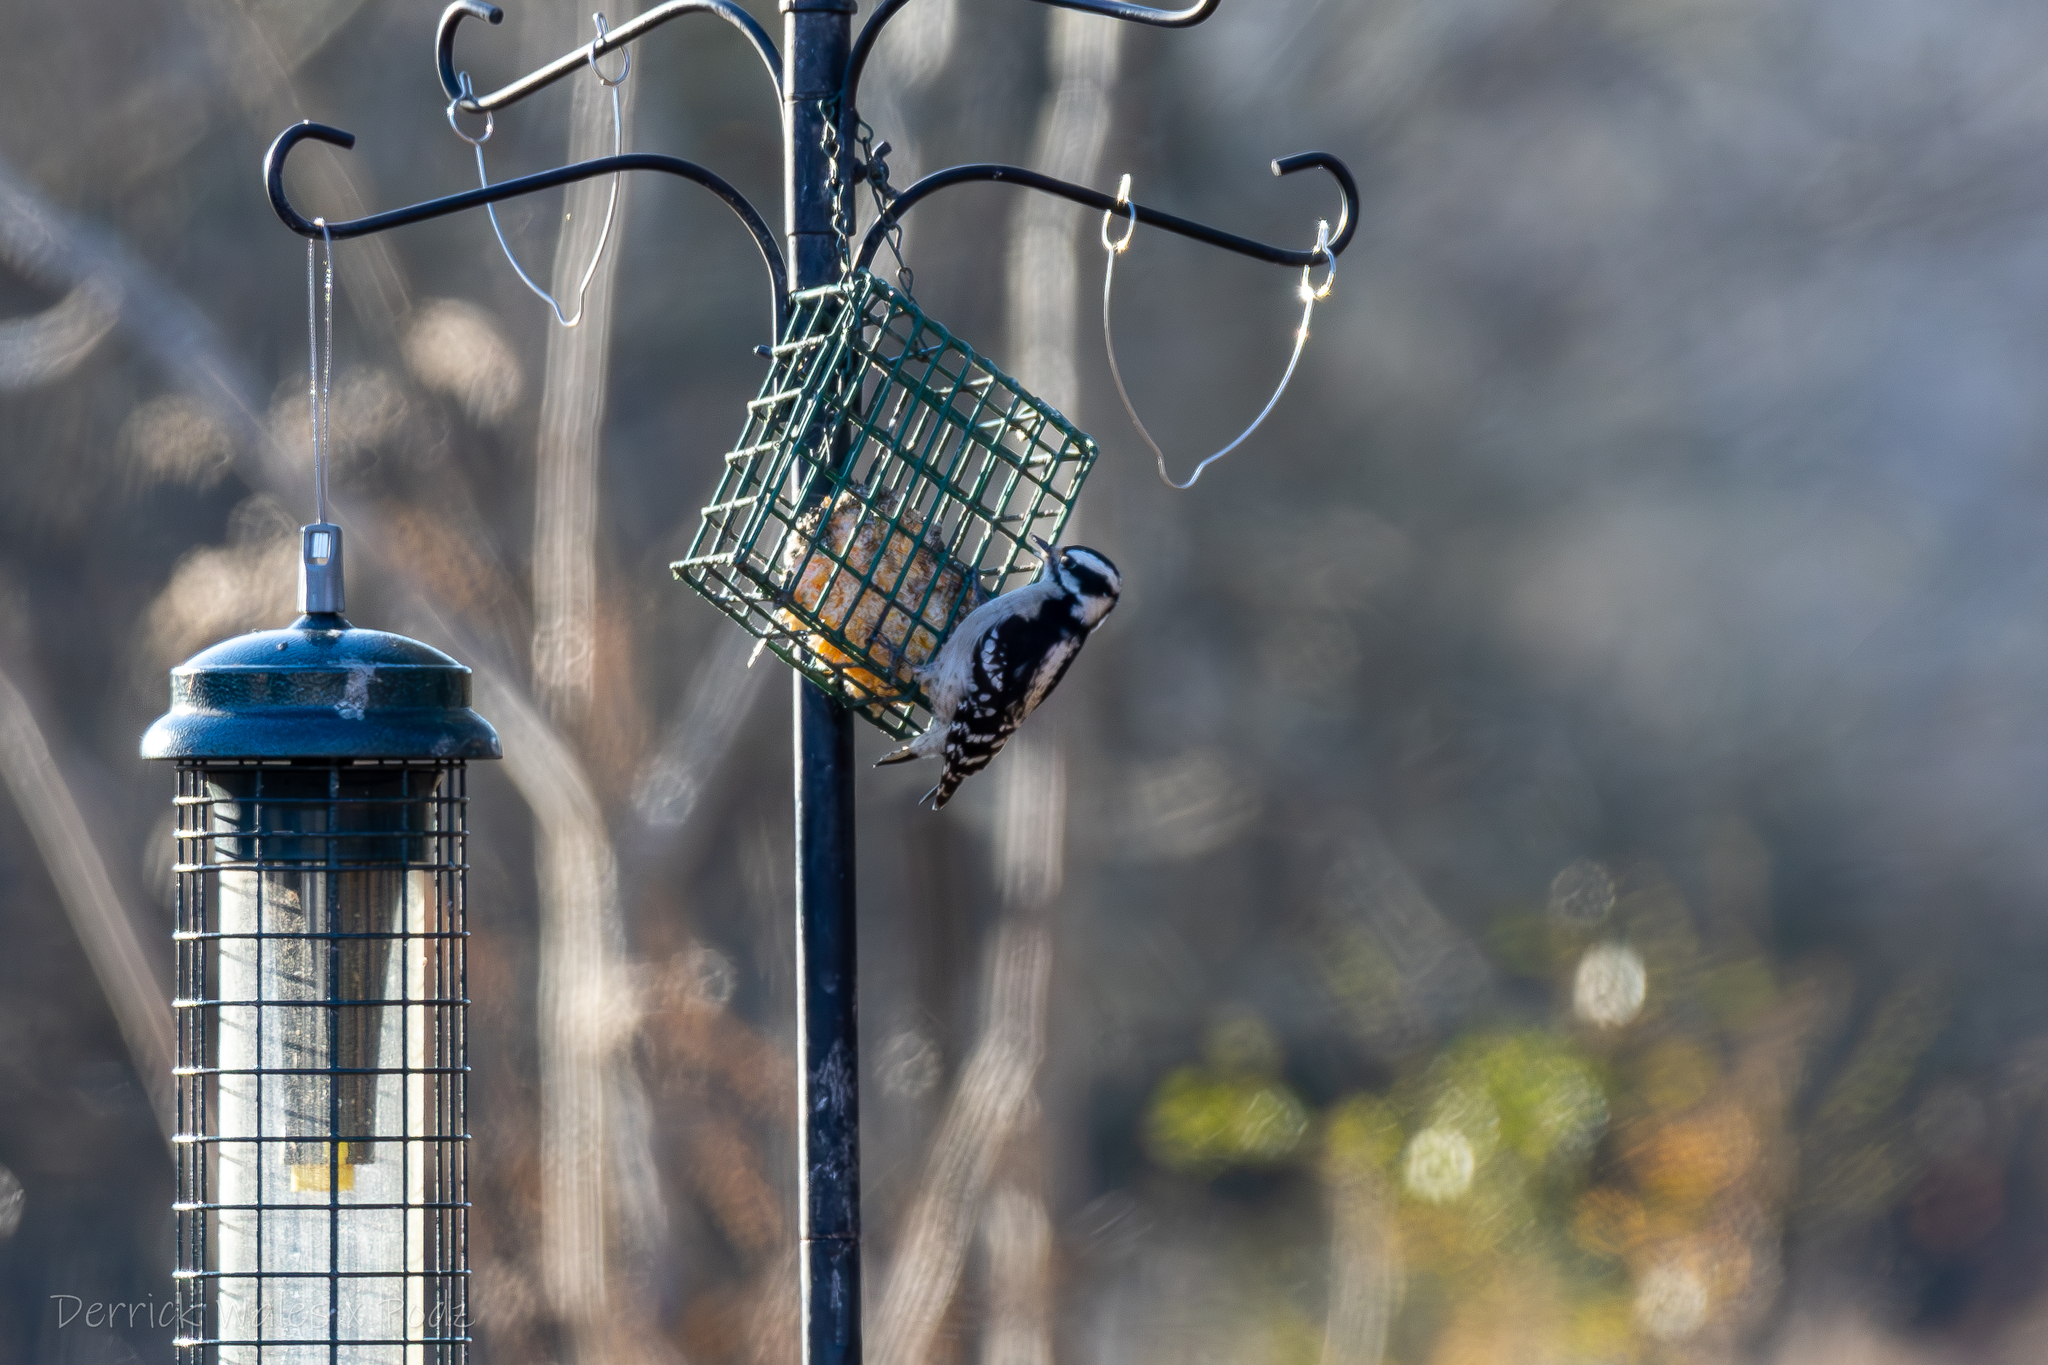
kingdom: Animalia
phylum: Chordata
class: Aves
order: Piciformes
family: Picidae
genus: Dryobates
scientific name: Dryobates pubescens
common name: Downy woodpecker
